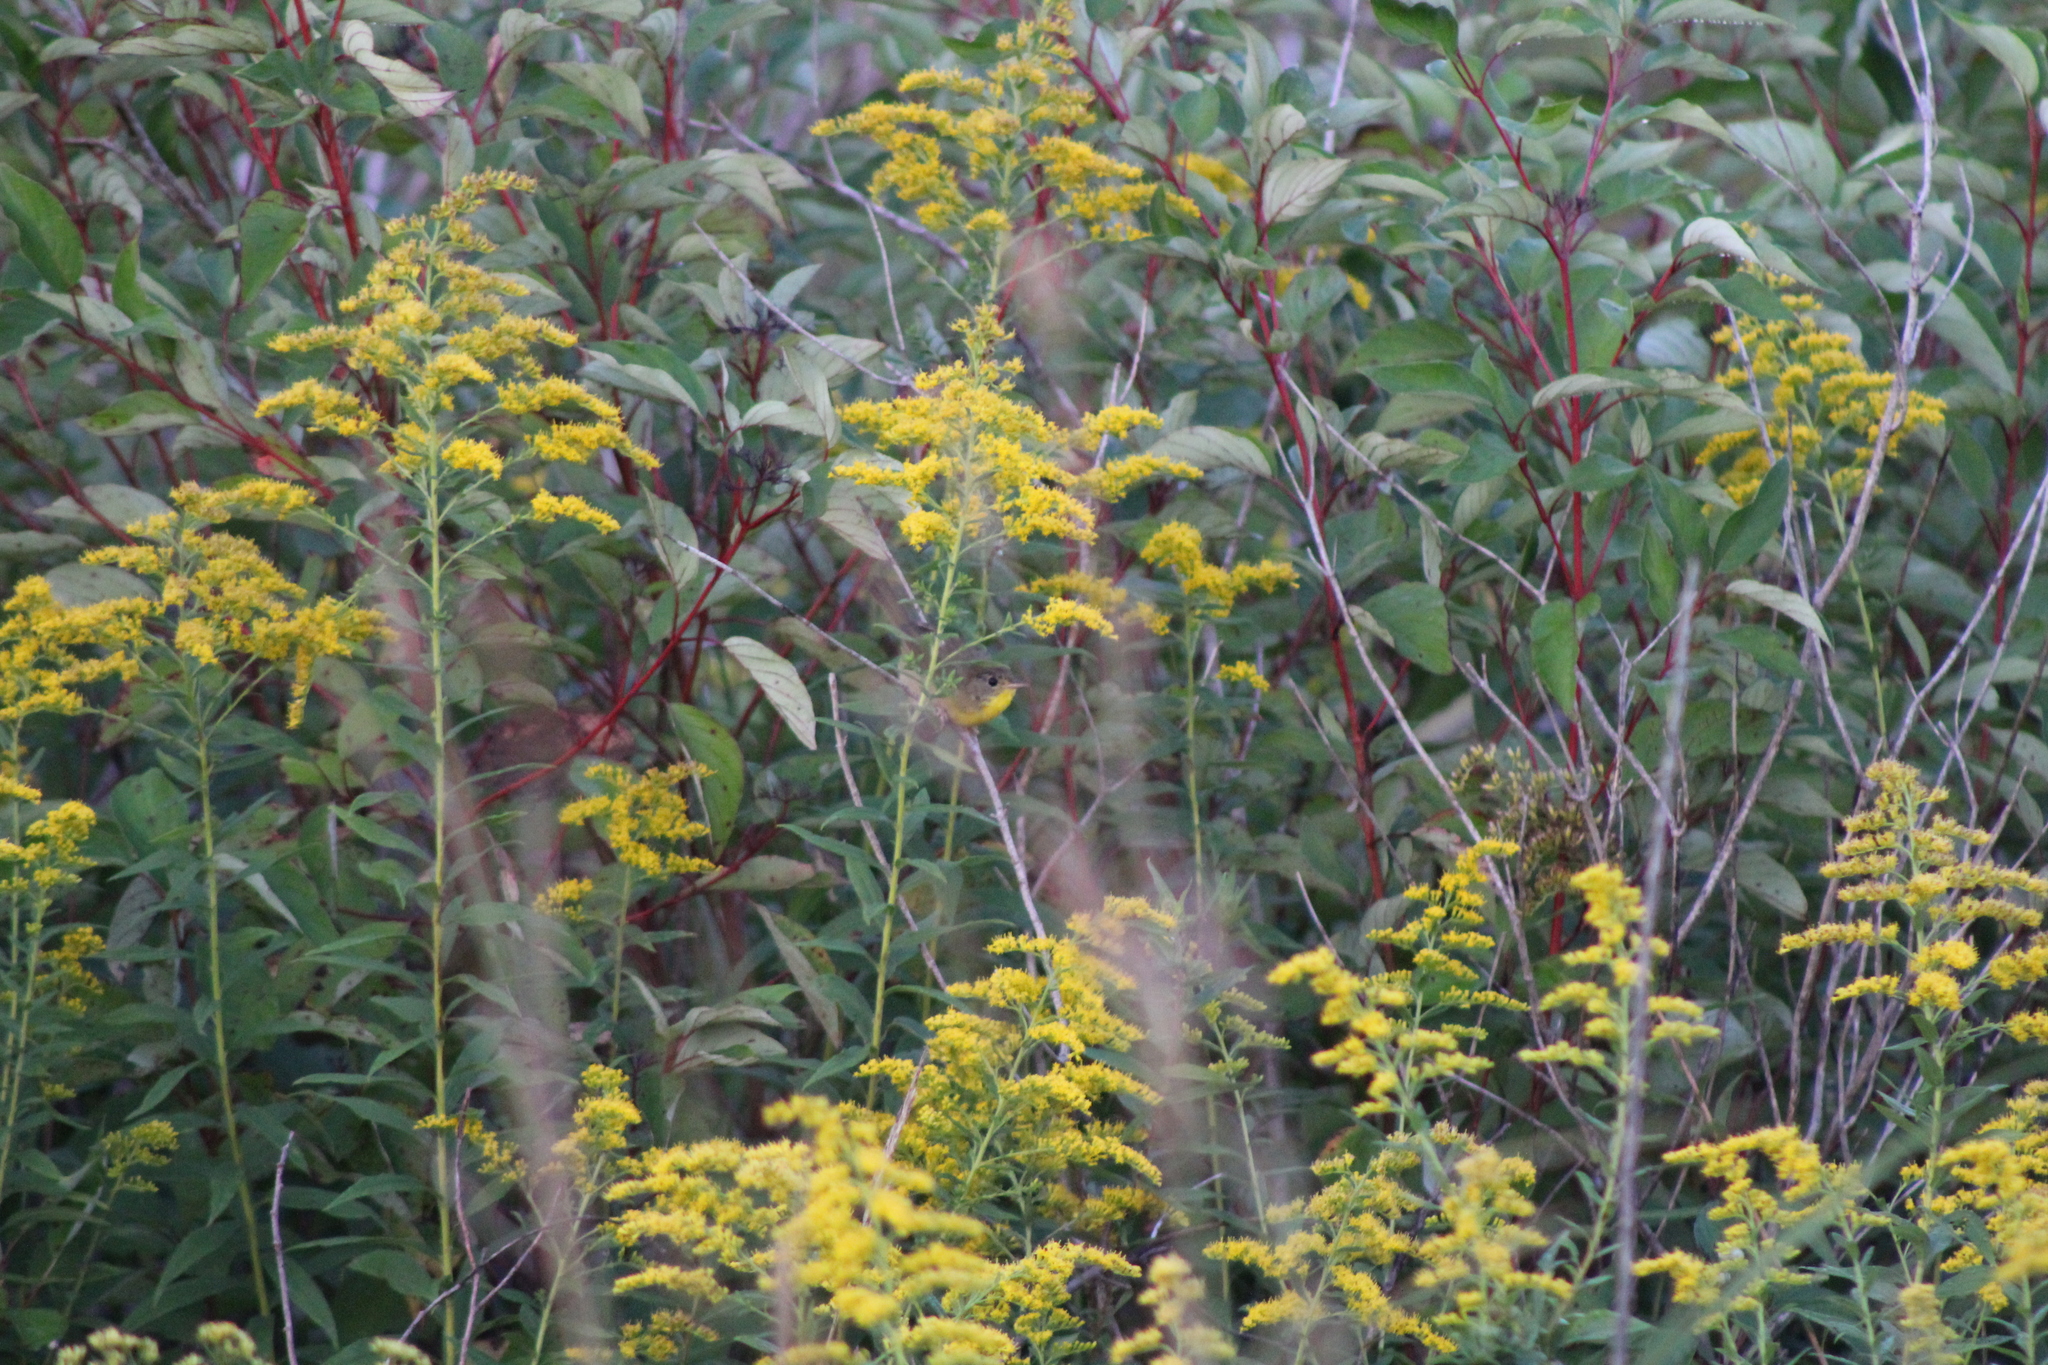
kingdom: Animalia
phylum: Chordata
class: Aves
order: Passeriformes
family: Parulidae
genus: Geothlypis
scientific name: Geothlypis trichas
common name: Common yellowthroat
